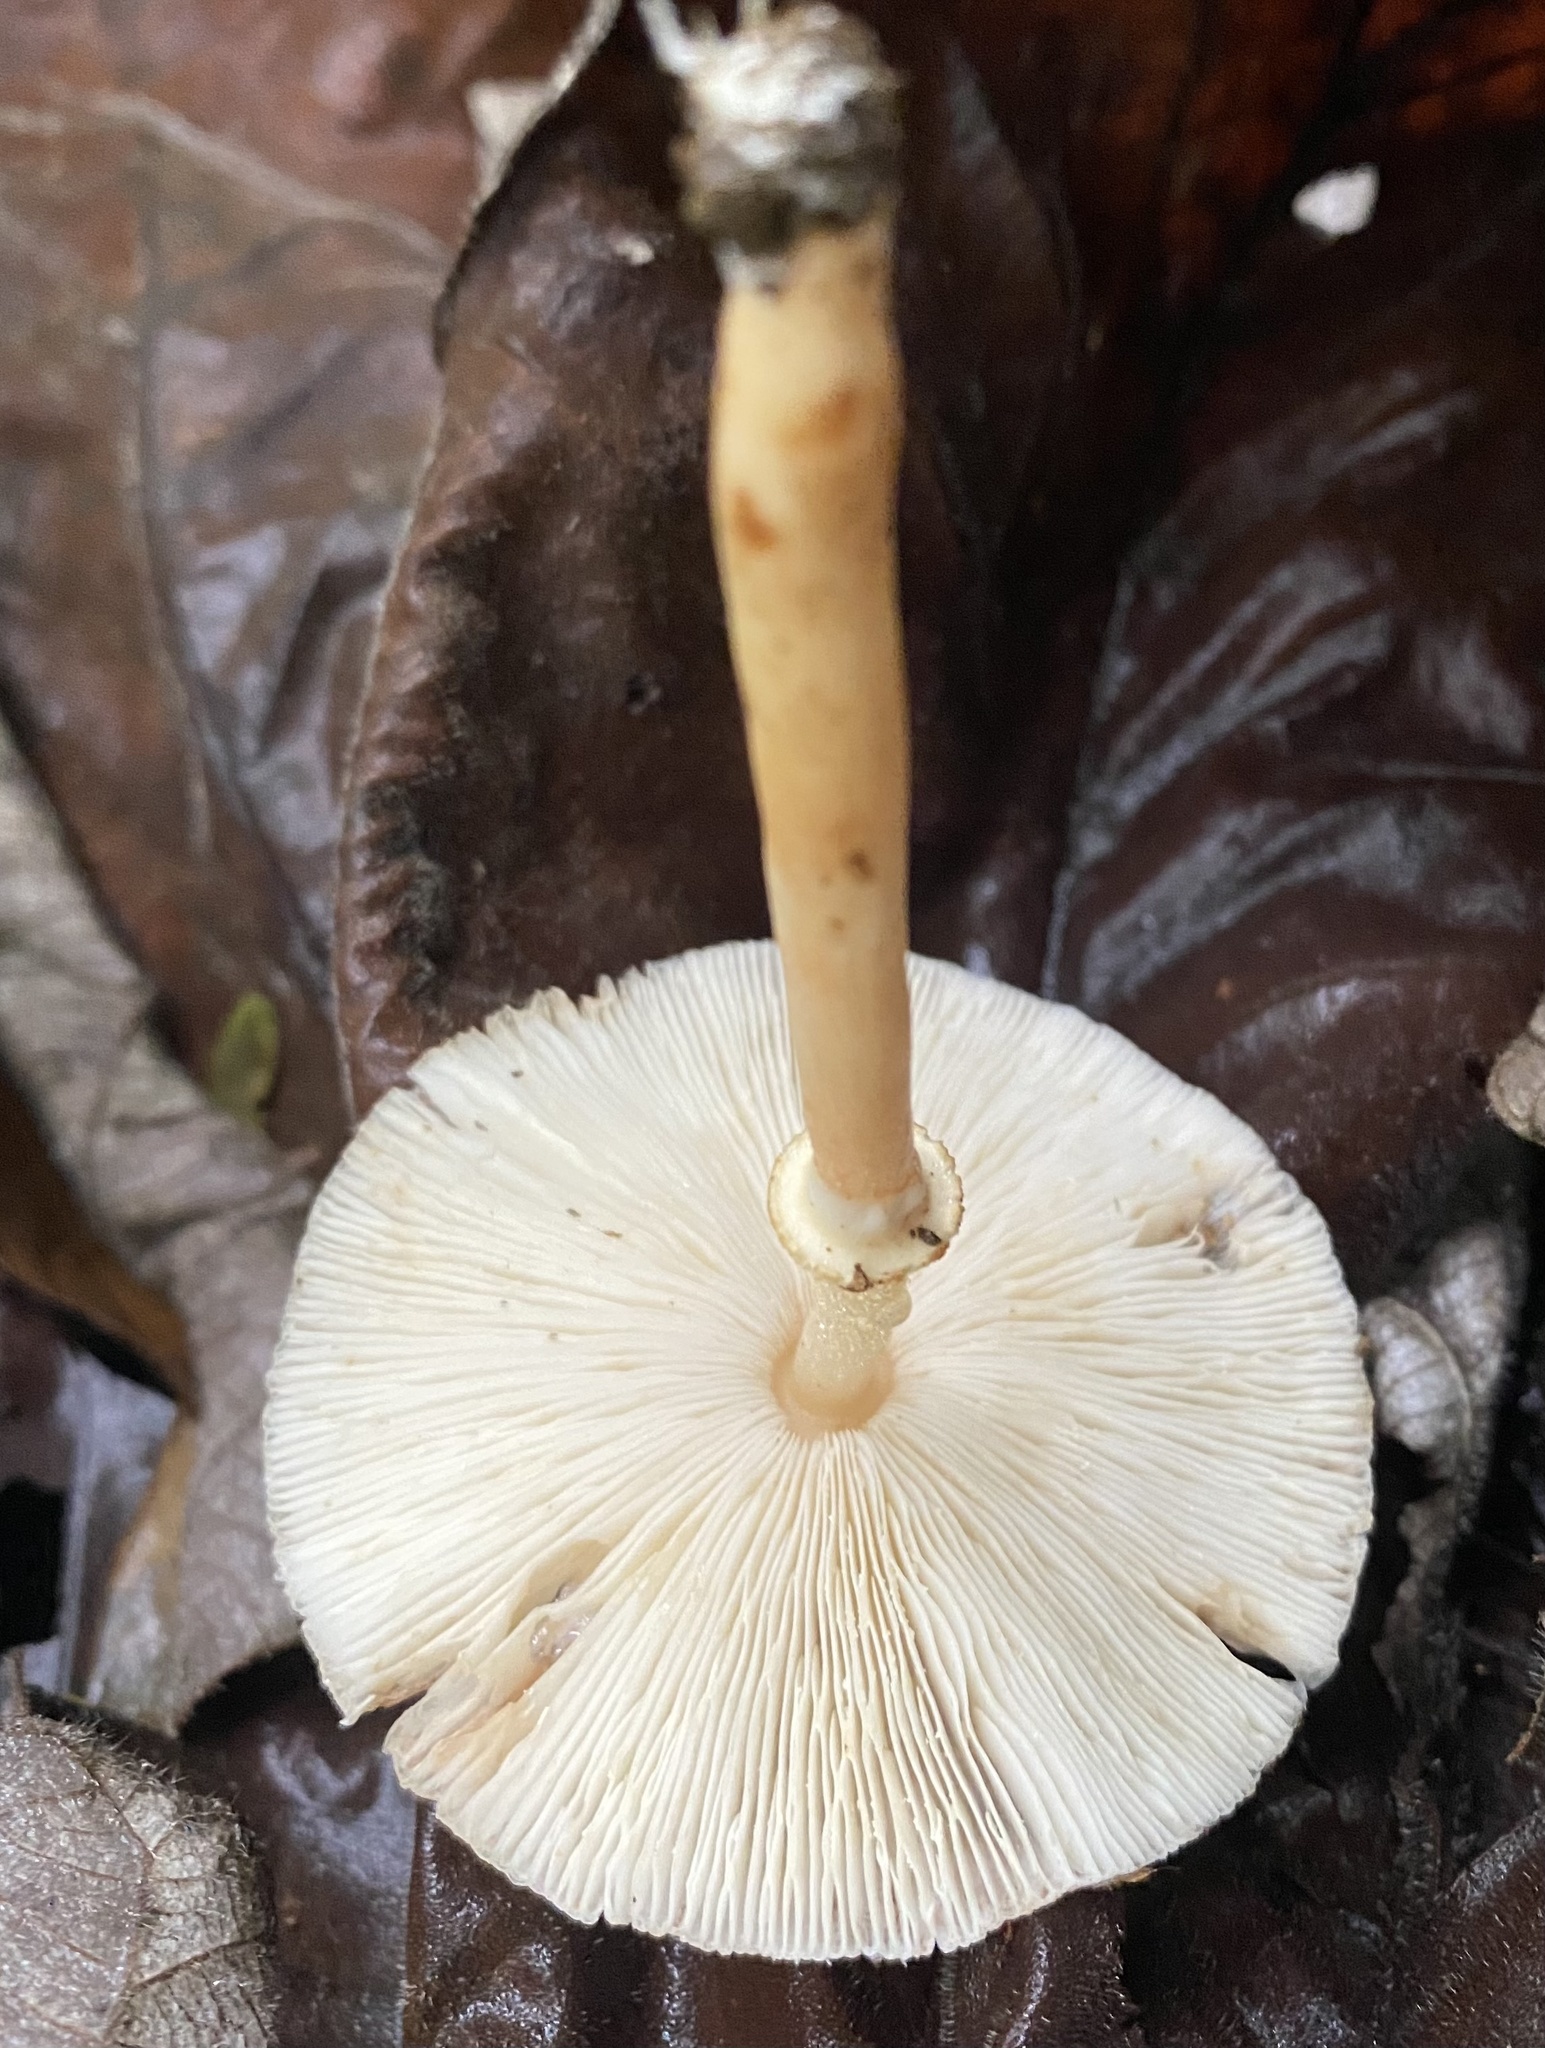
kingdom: Fungi
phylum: Basidiomycota
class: Agaricomycetes
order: Agaricales
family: Agaricaceae
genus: Leucoagaricus
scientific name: Leucoagaricus rubrotinctus
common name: Ruby dapperling
